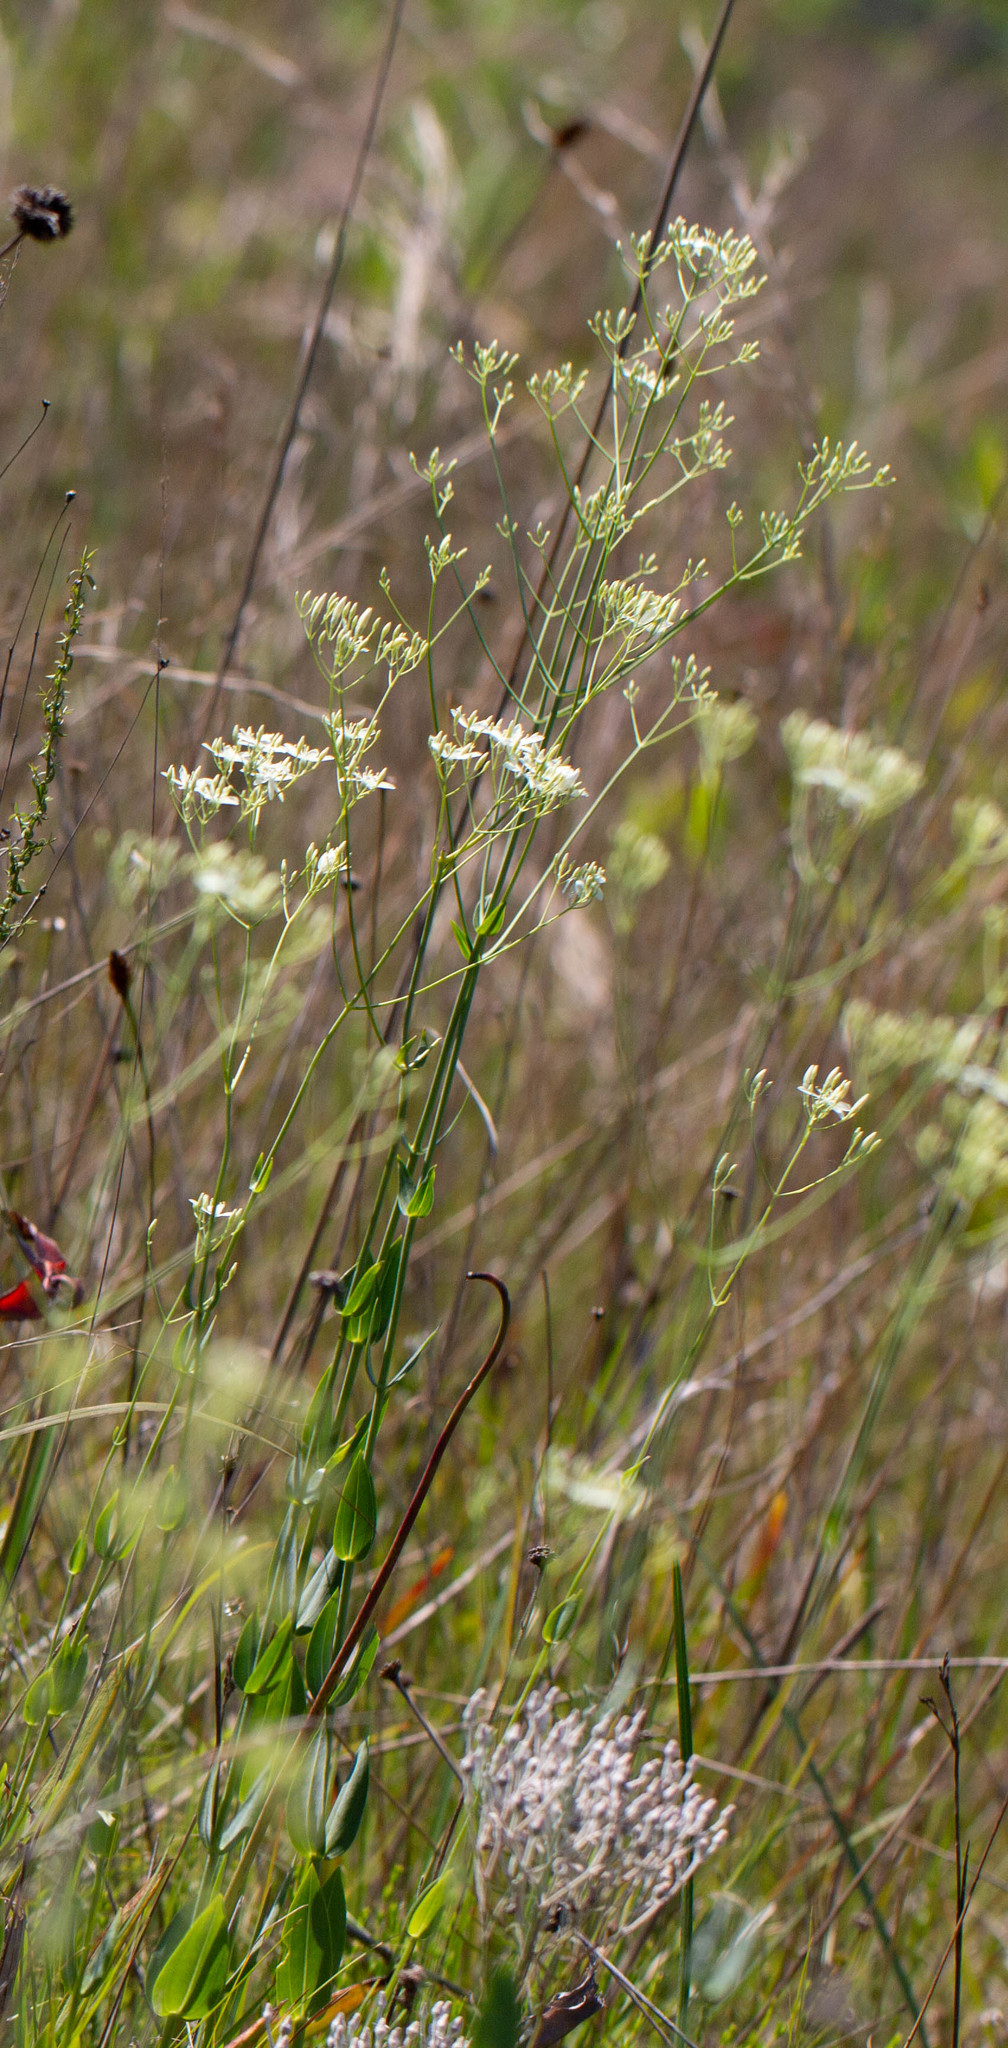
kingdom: Plantae
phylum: Tracheophyta
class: Magnoliopsida
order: Gentianales
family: Gentianaceae
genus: Sabatia
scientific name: Sabatia macrophylla
